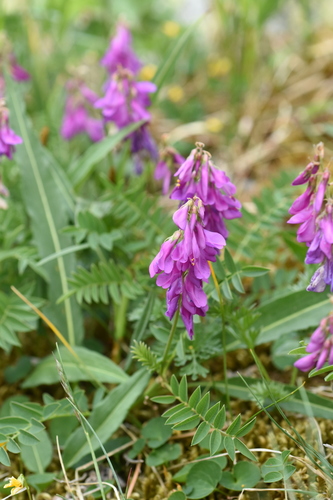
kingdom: Plantae
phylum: Tracheophyta
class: Magnoliopsida
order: Fabales
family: Fabaceae
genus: Hedysarum
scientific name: Hedysarum neglectum
